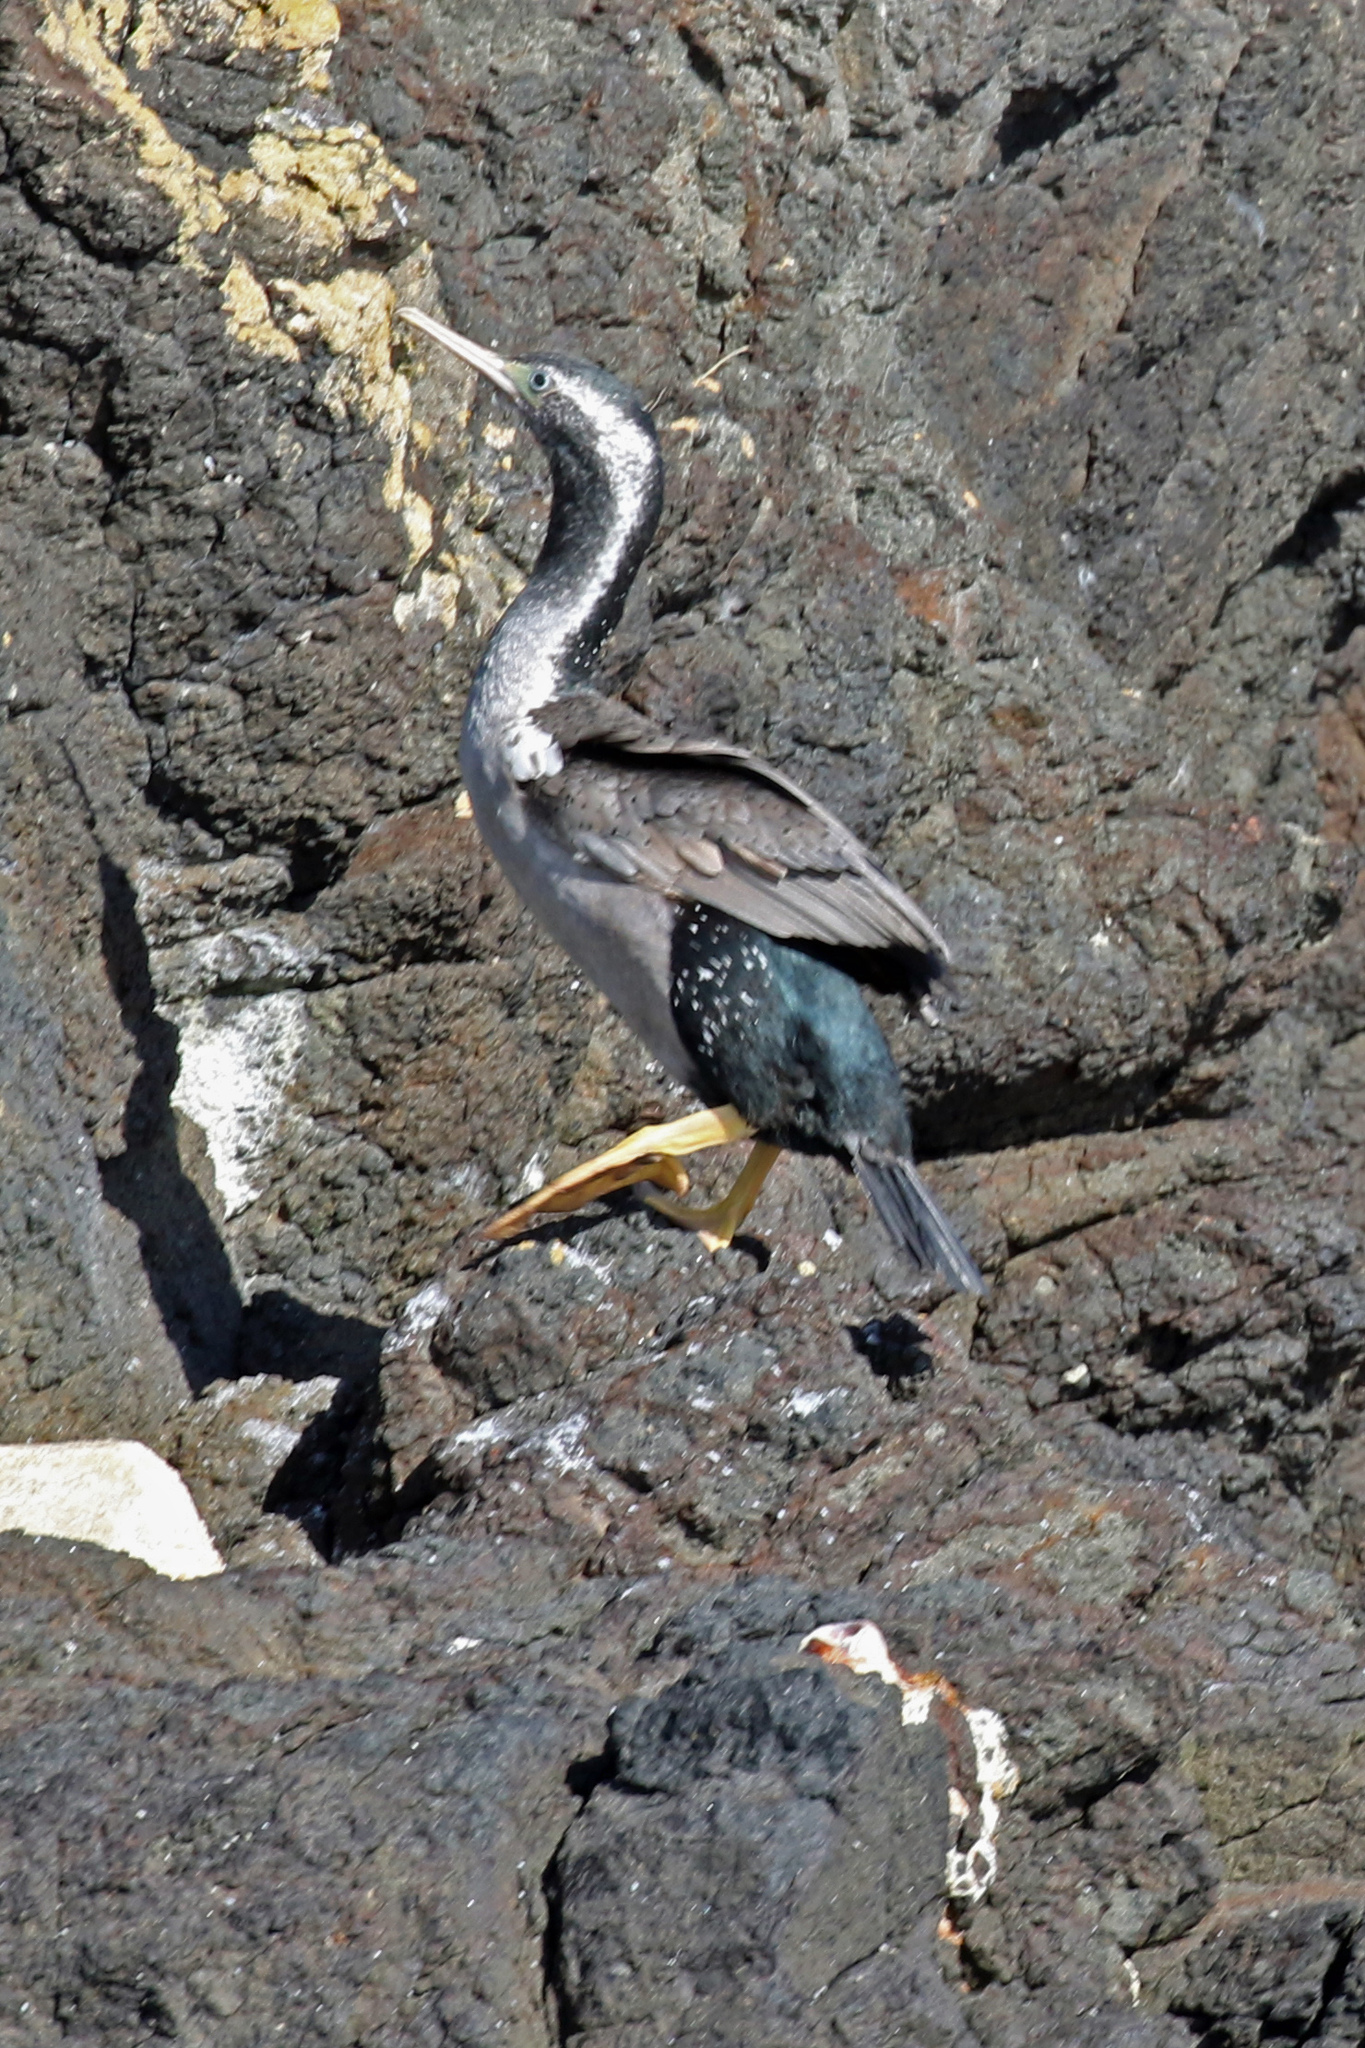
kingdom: Animalia
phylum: Chordata
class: Aves
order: Suliformes
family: Phalacrocoracidae
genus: Phalacrocorax
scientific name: Phalacrocorax punctatus
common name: Spotted shag
